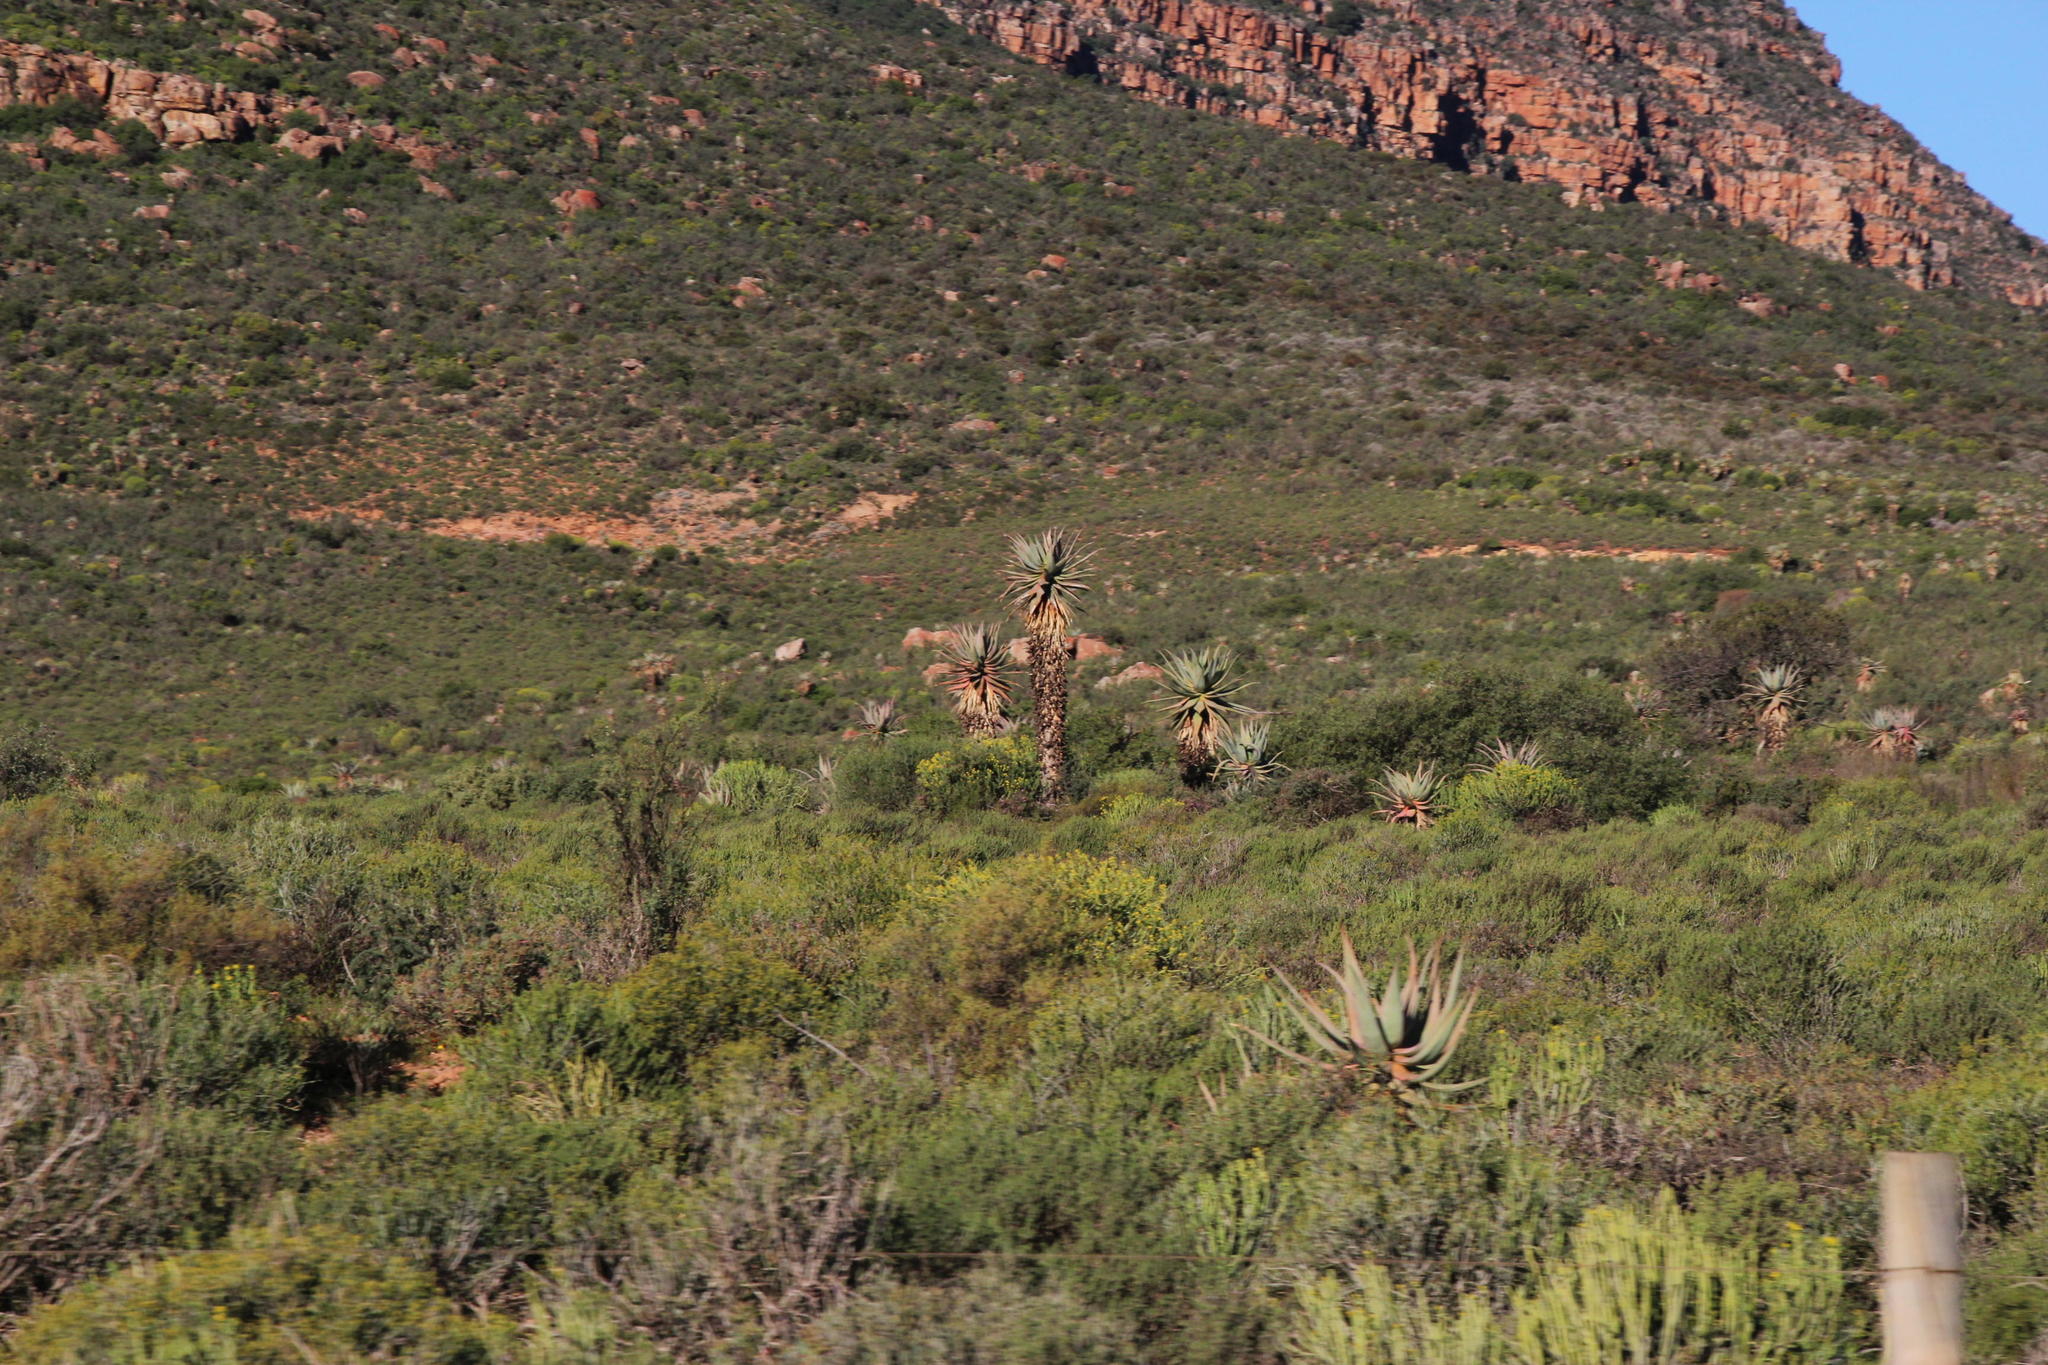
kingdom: Plantae
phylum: Tracheophyta
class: Liliopsida
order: Asparagales
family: Asphodelaceae
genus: Aloe
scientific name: Aloe comosa
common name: Clanwilliam aloe
